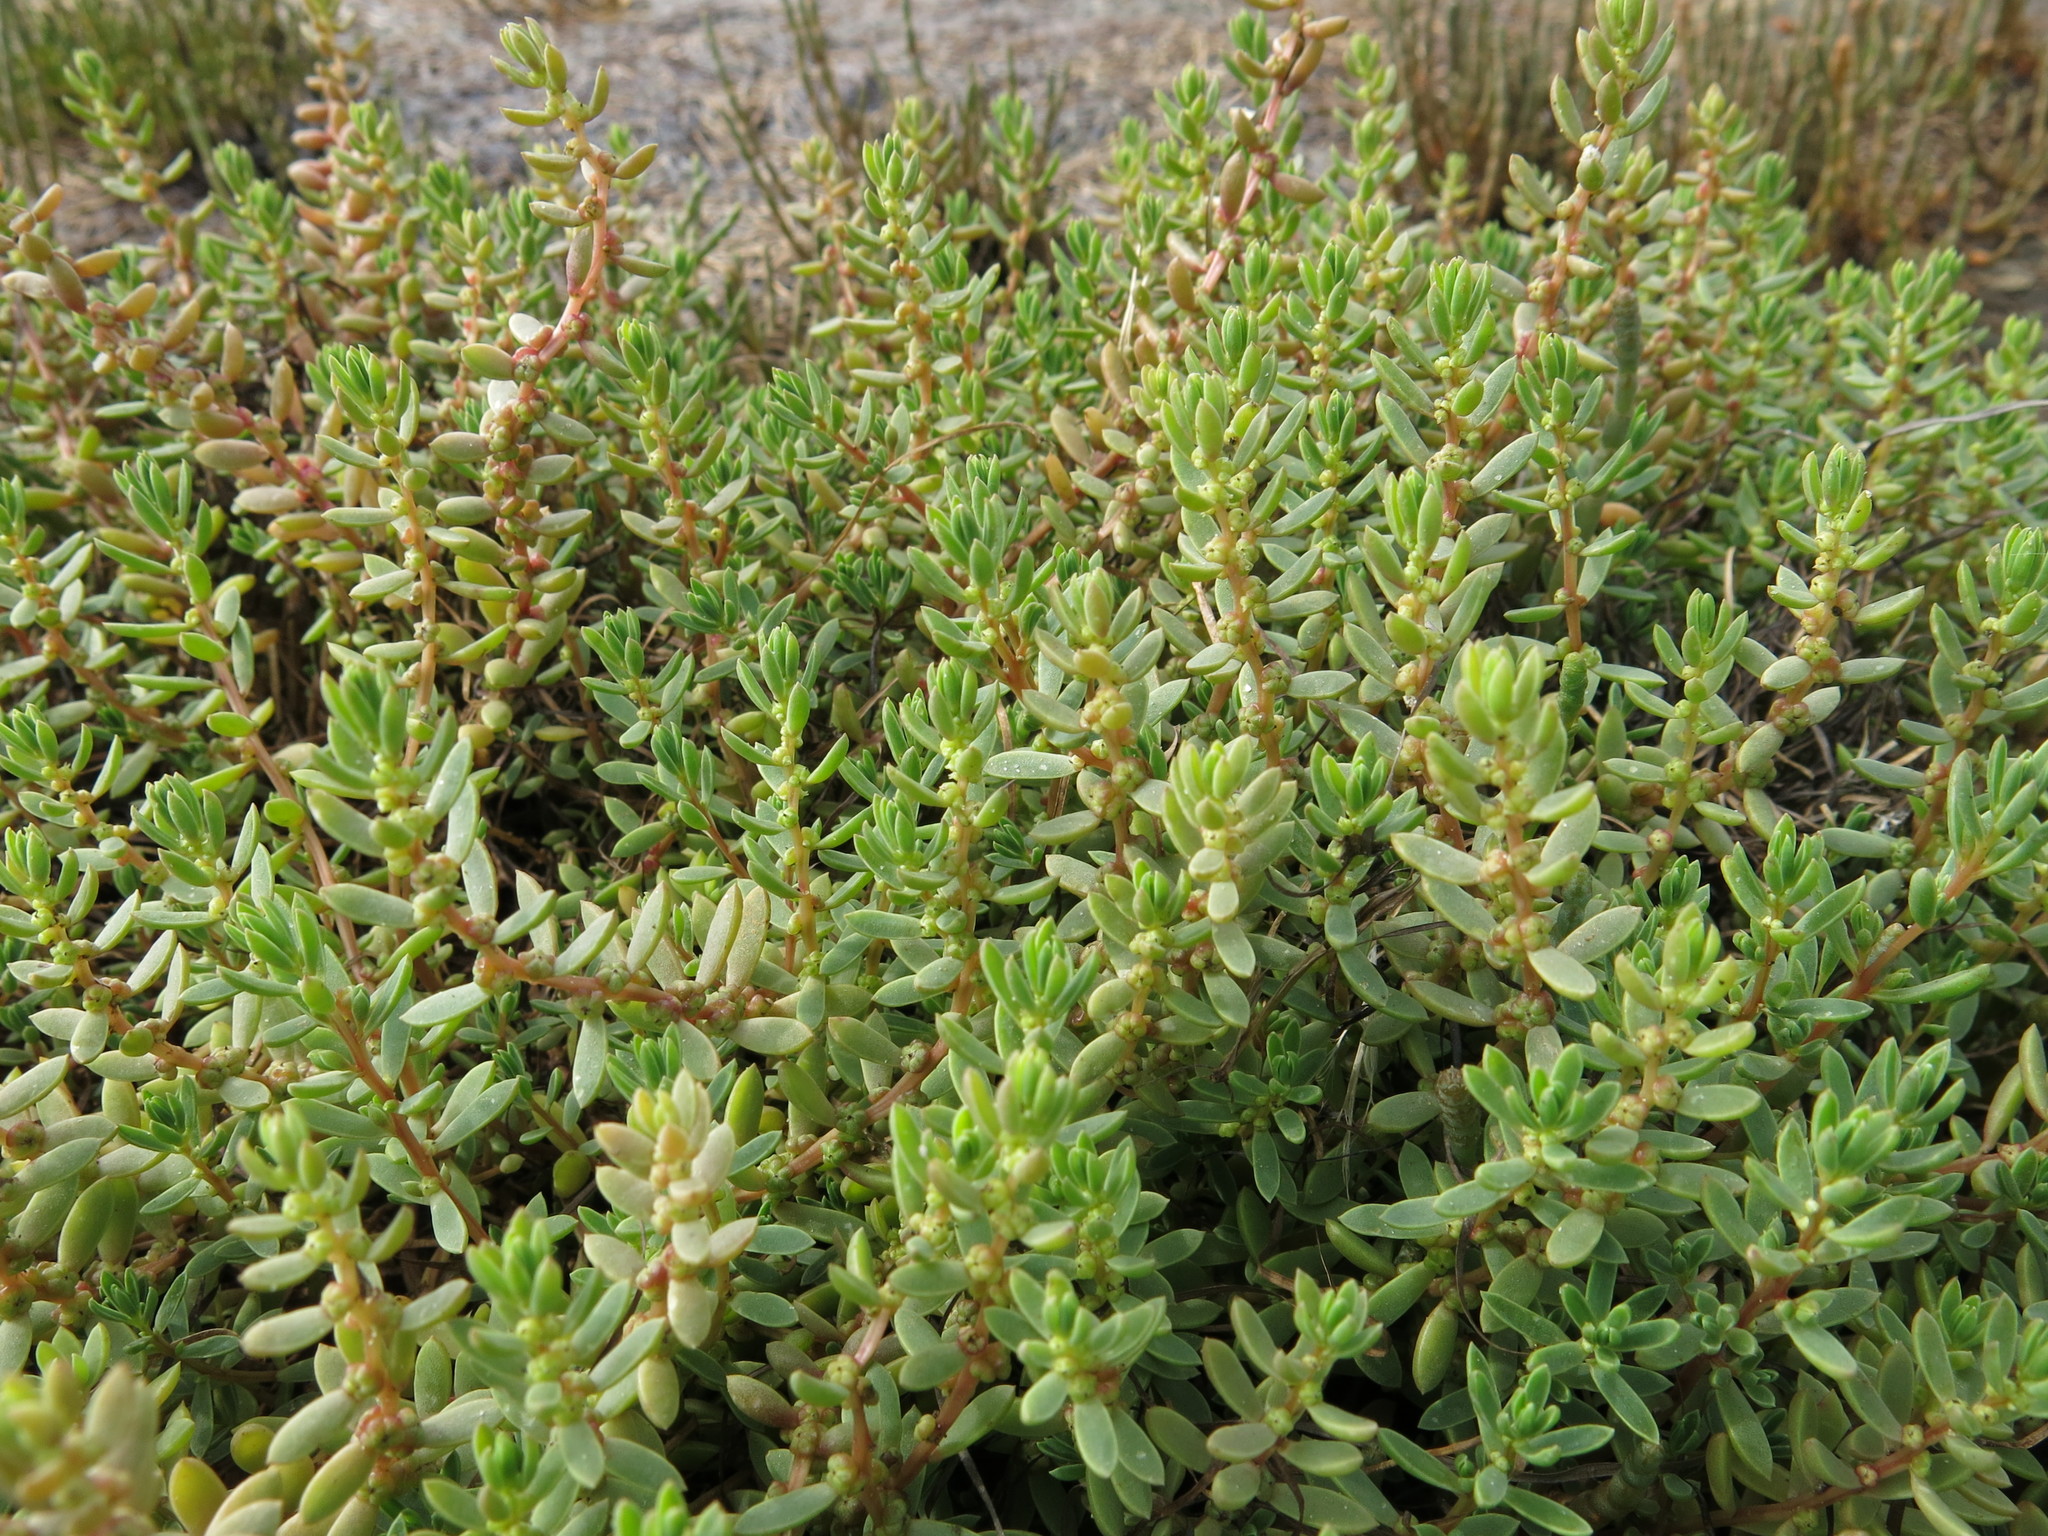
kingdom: Plantae
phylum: Tracheophyta
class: Magnoliopsida
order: Caryophyllales
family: Amaranthaceae
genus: Suaeda
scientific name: Suaeda novae-zelandiae
